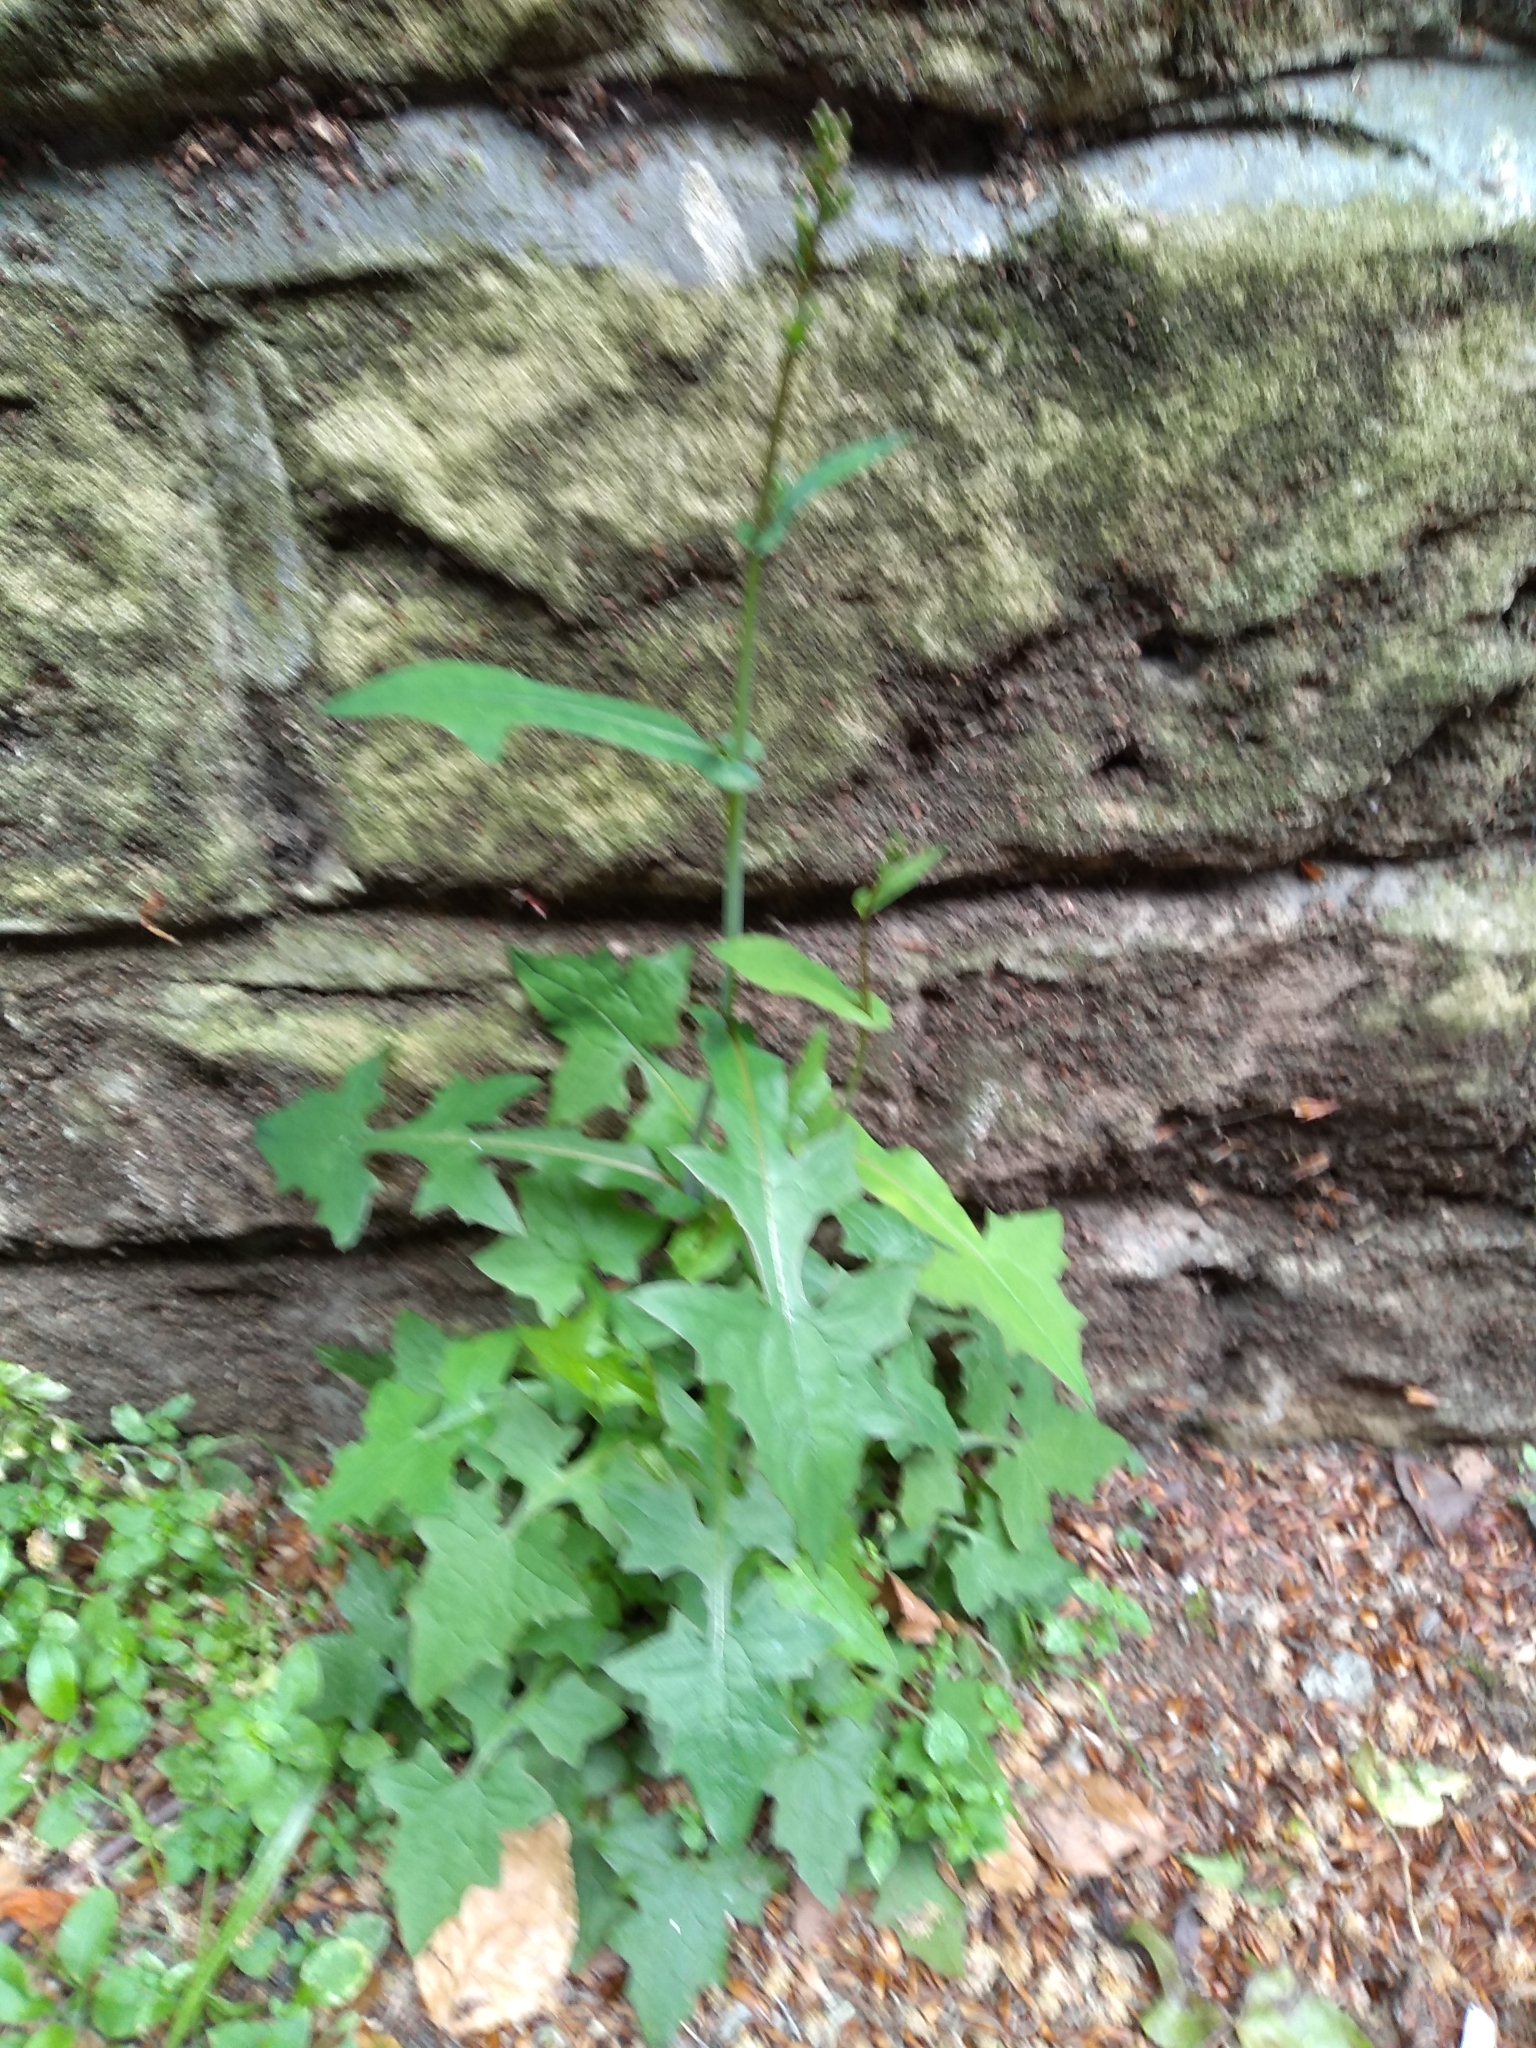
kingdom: Plantae
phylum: Tracheophyta
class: Magnoliopsida
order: Asterales
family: Asteraceae
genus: Mycelis
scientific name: Mycelis muralis
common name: Wall lettuce
